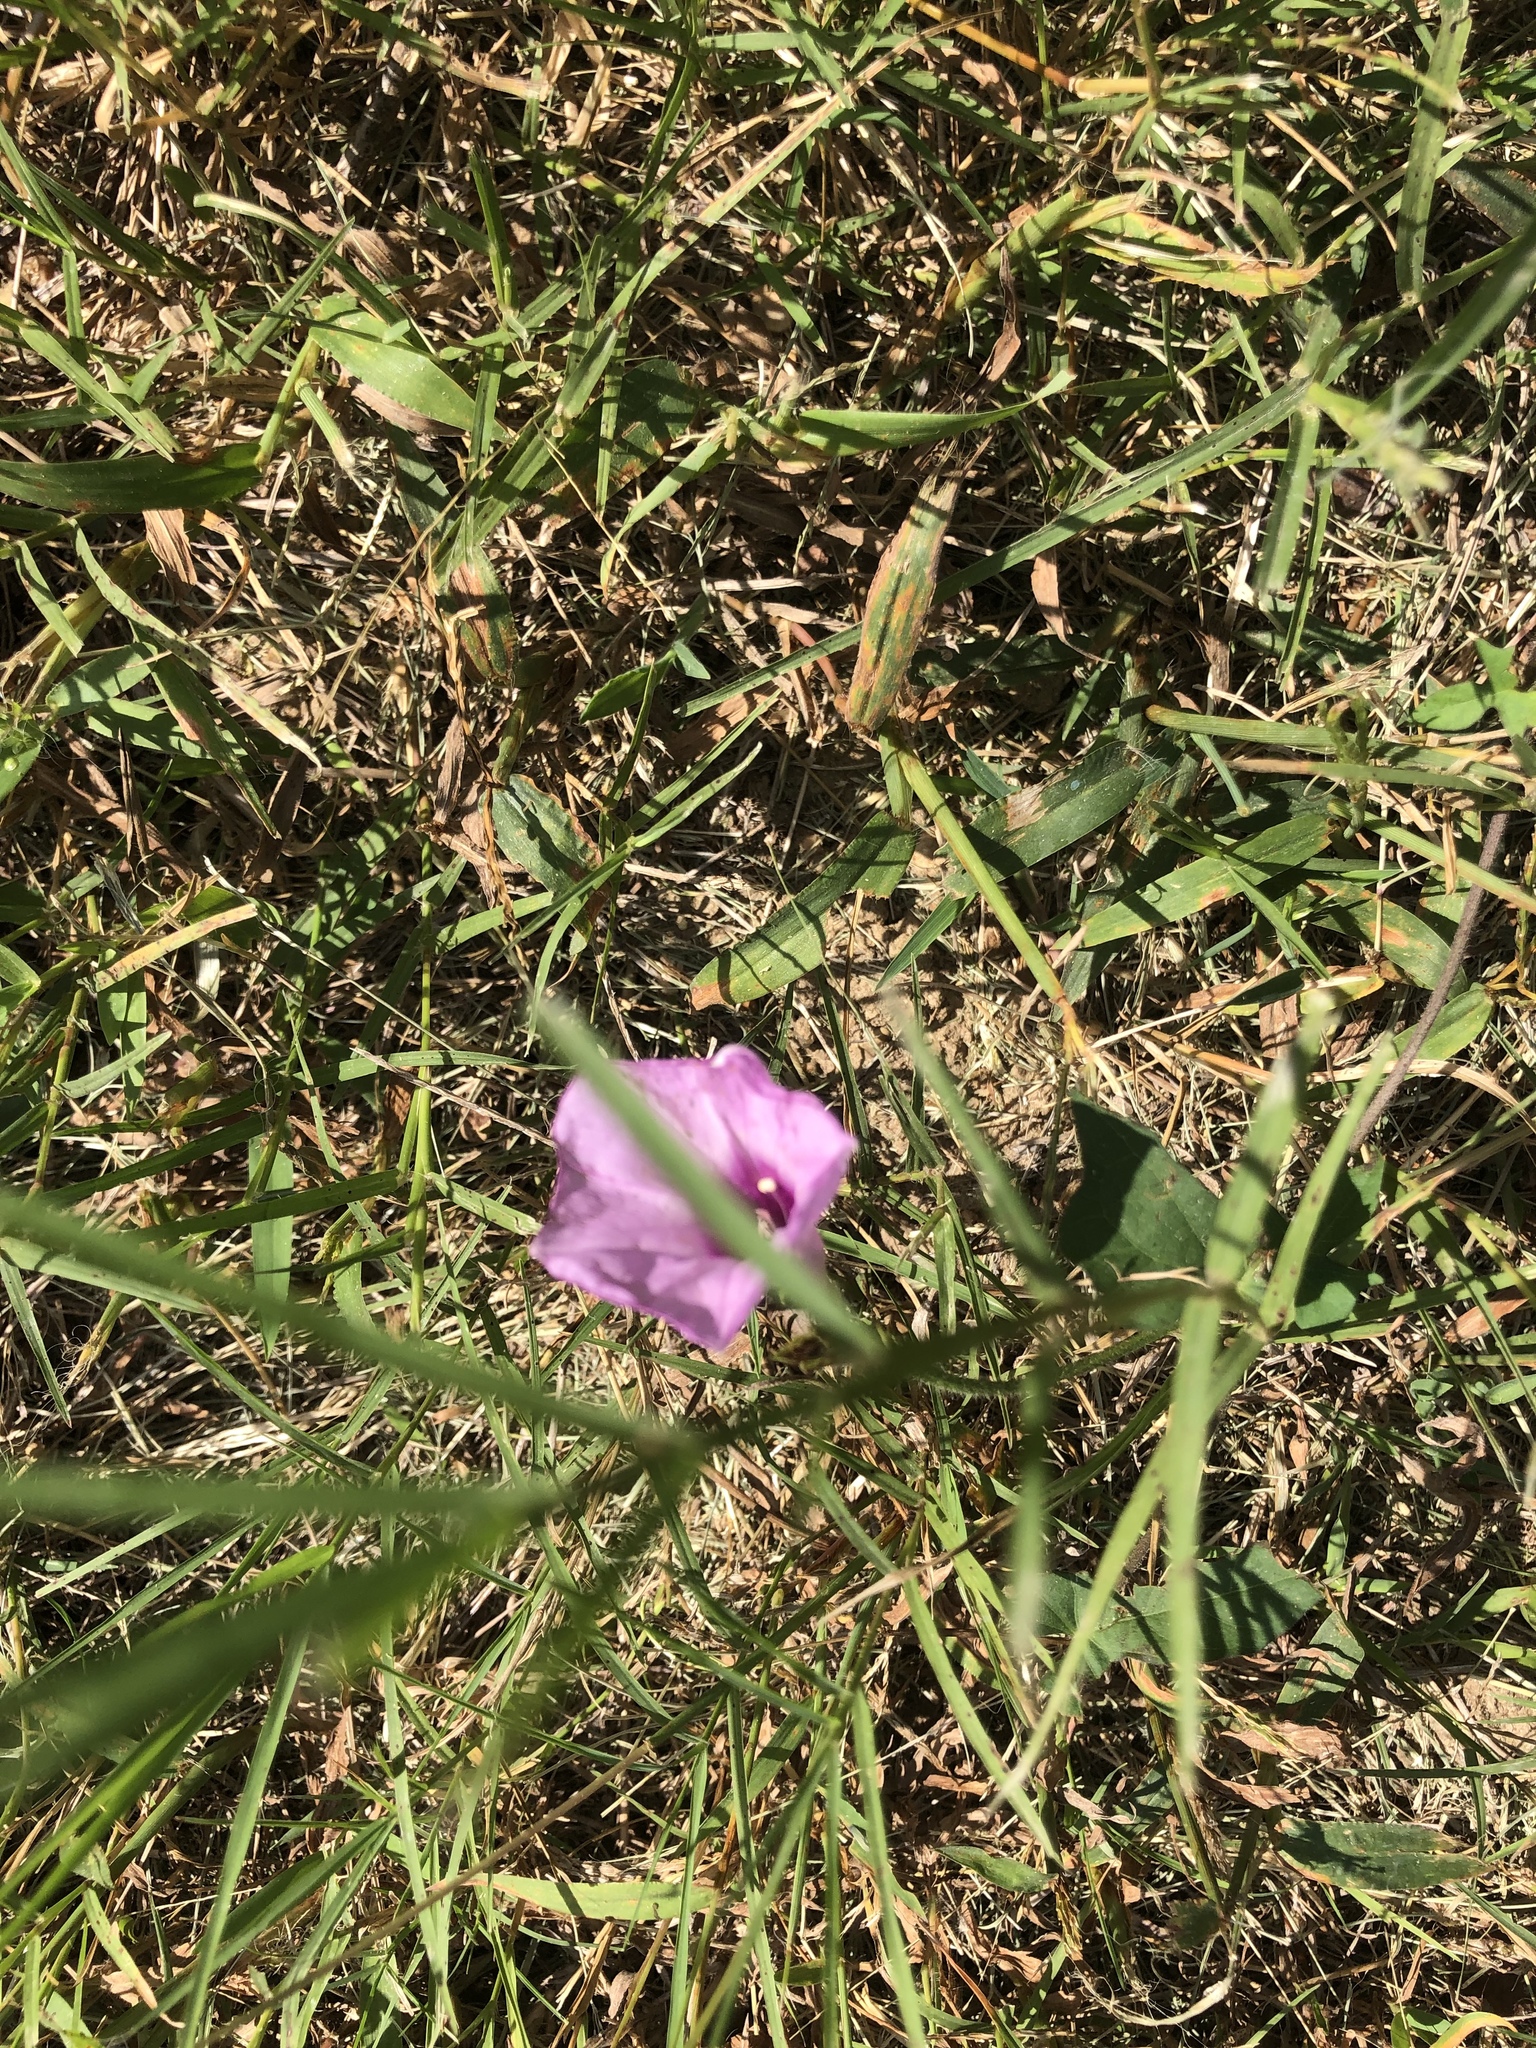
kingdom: Plantae
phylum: Tracheophyta
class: Magnoliopsida
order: Solanales
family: Convolvulaceae
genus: Ipomoea
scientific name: Ipomoea cordatotriloba
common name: Cotton morning glory
